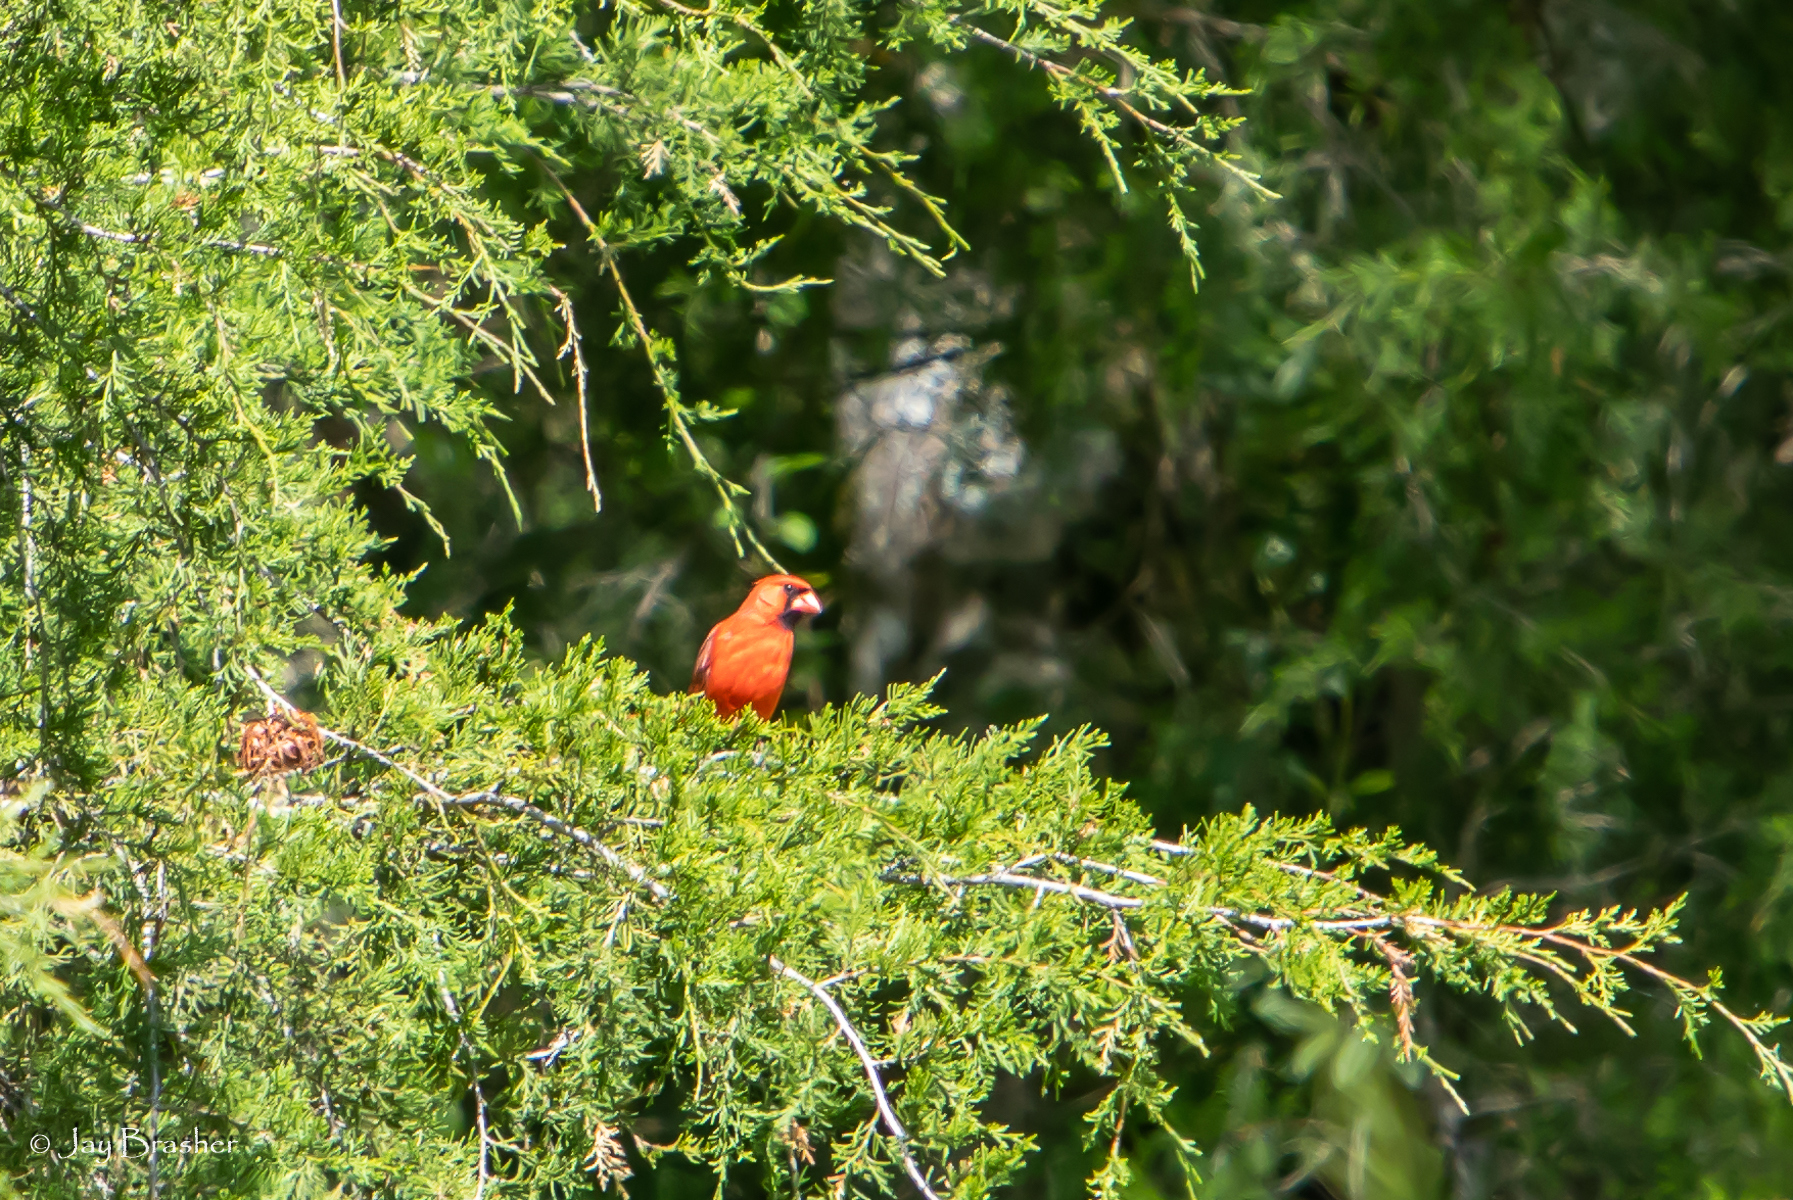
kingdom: Animalia
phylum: Chordata
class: Aves
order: Passeriformes
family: Cardinalidae
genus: Cardinalis
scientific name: Cardinalis cardinalis
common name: Northern cardinal
